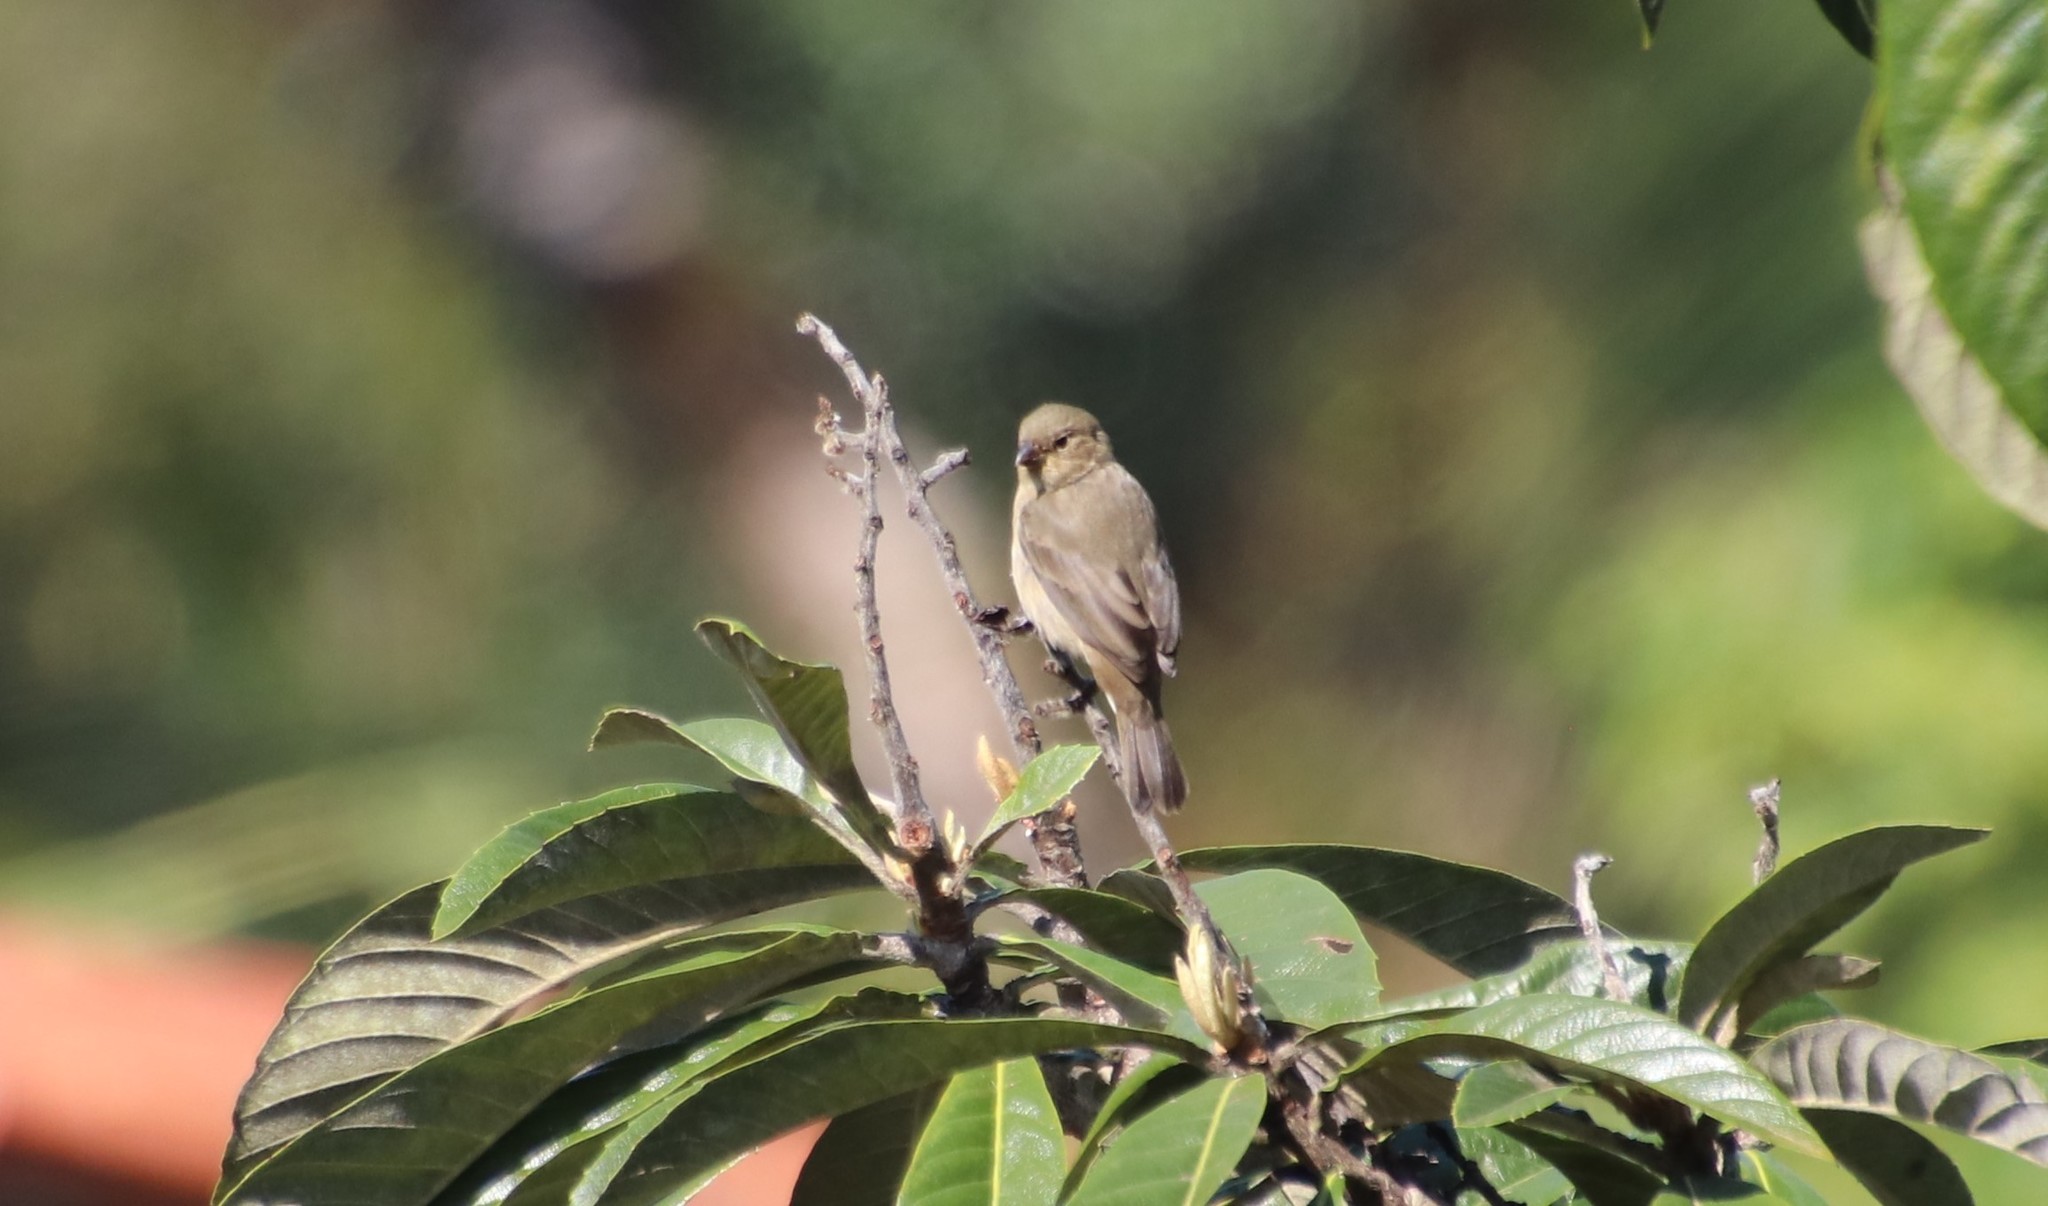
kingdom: Animalia
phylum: Chordata
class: Aves
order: Passeriformes
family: Thraupidae
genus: Sporophila
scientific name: Sporophila caerulescens
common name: Double-collared seedeater
